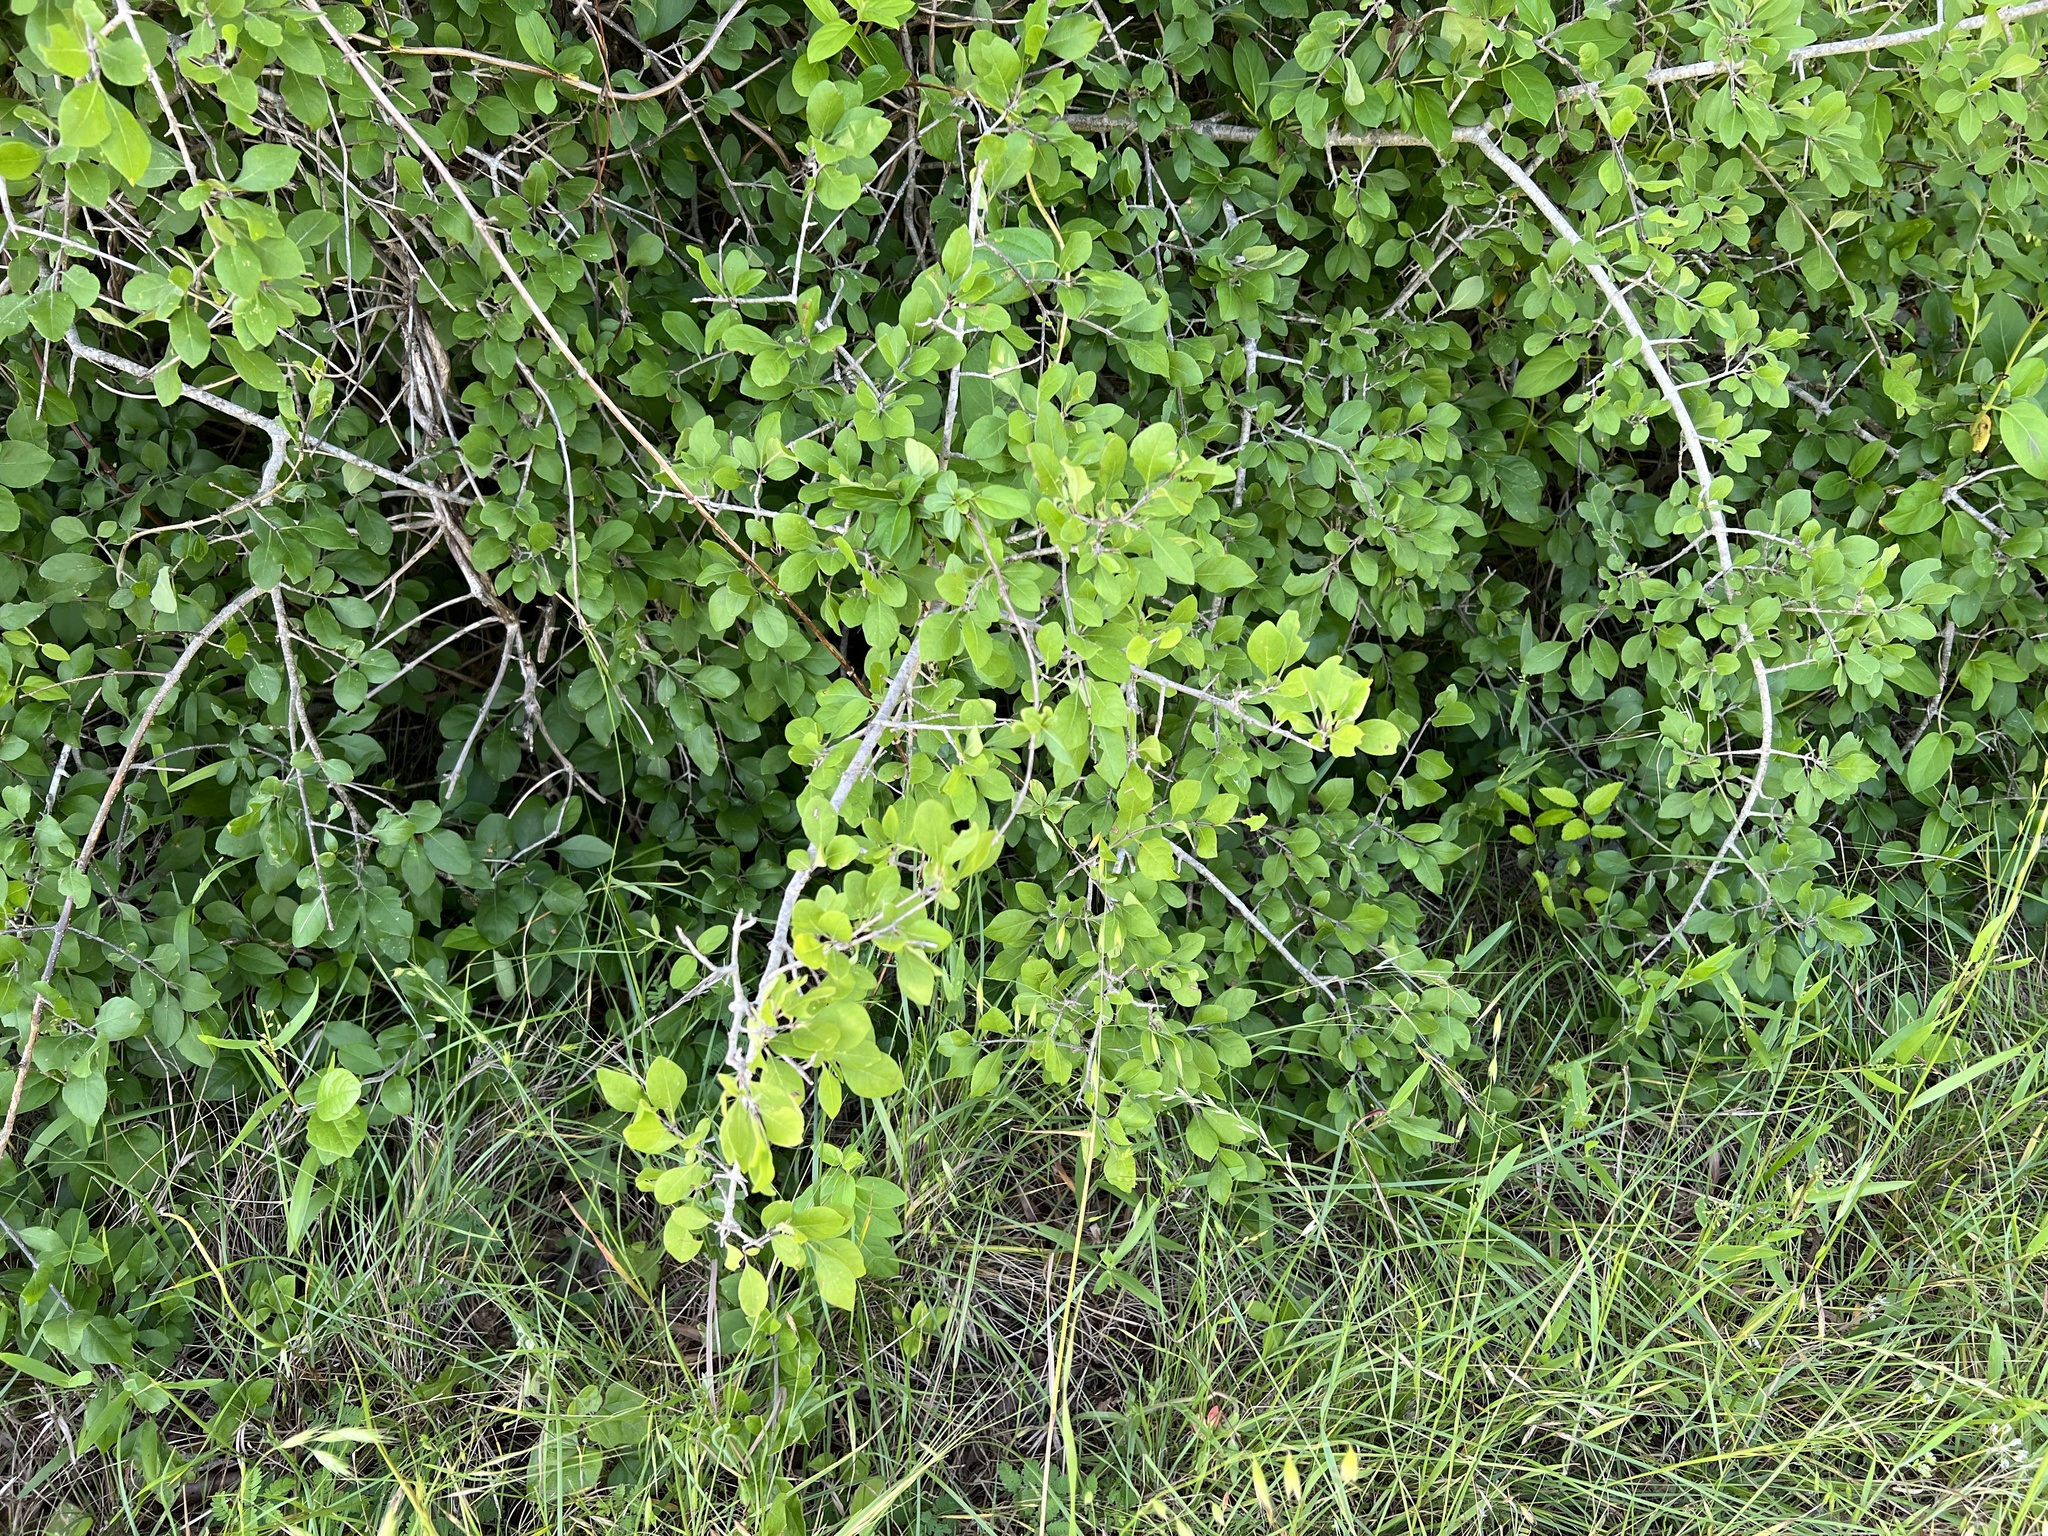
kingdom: Plantae
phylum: Tracheophyta
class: Magnoliopsida
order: Lamiales
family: Oleaceae
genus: Forestiera
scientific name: Forestiera pubescens
